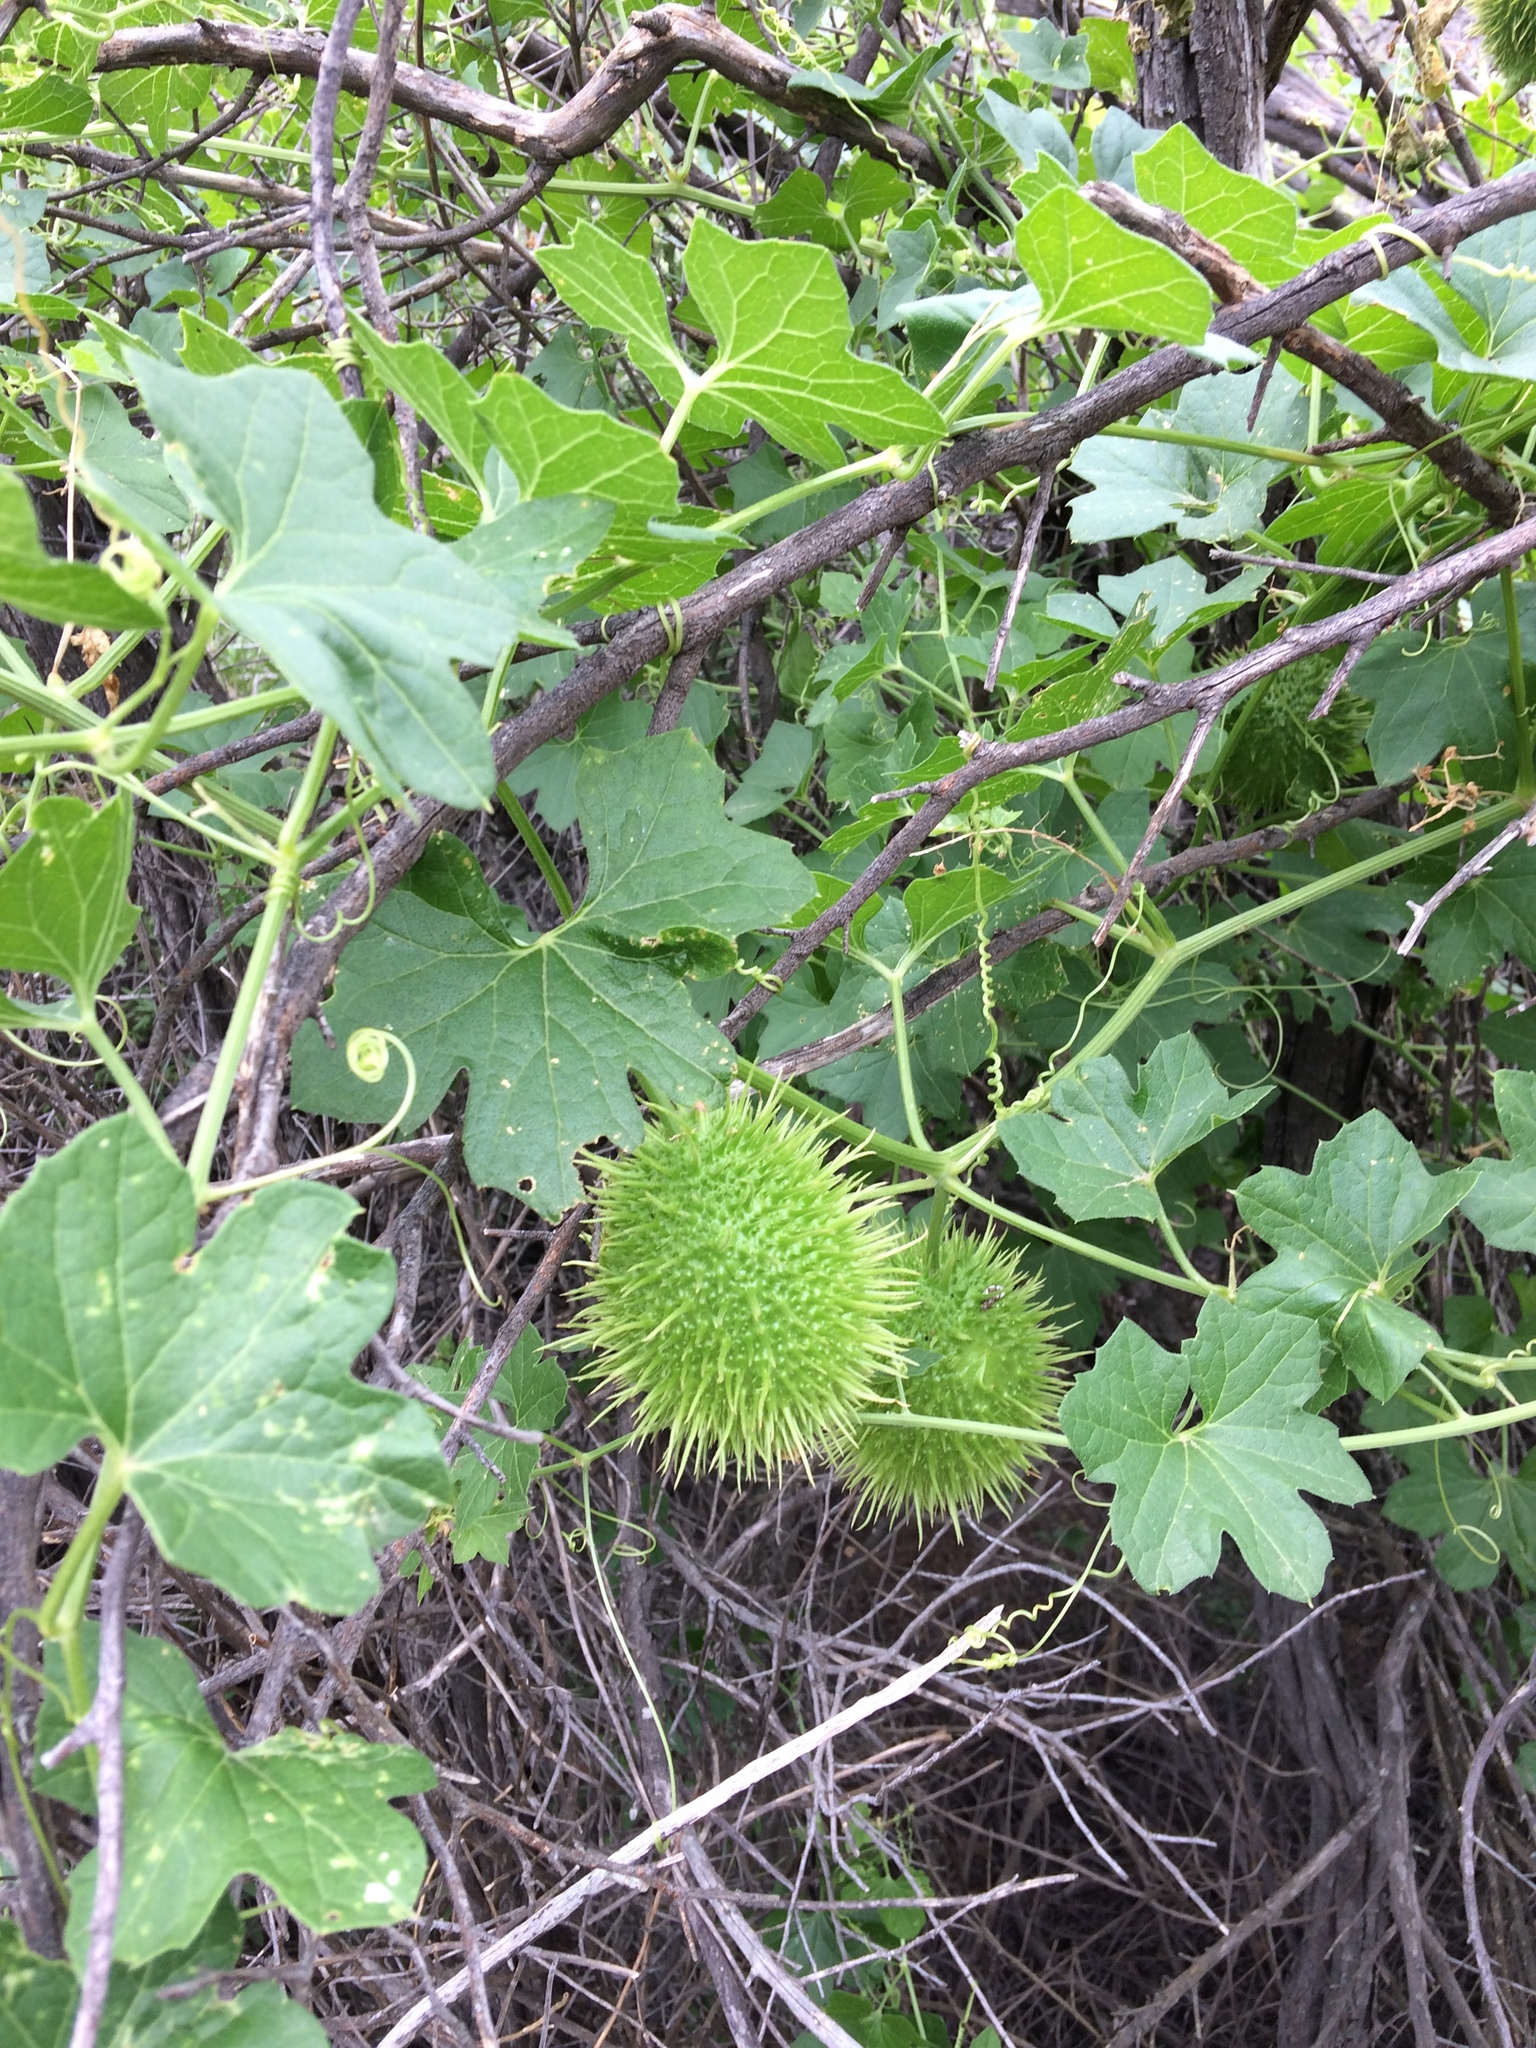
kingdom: Plantae
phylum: Tracheophyta
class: Magnoliopsida
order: Cucurbitales
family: Cucurbitaceae
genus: Marah
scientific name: Marah macrocarpa
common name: Cucamonga manroot
